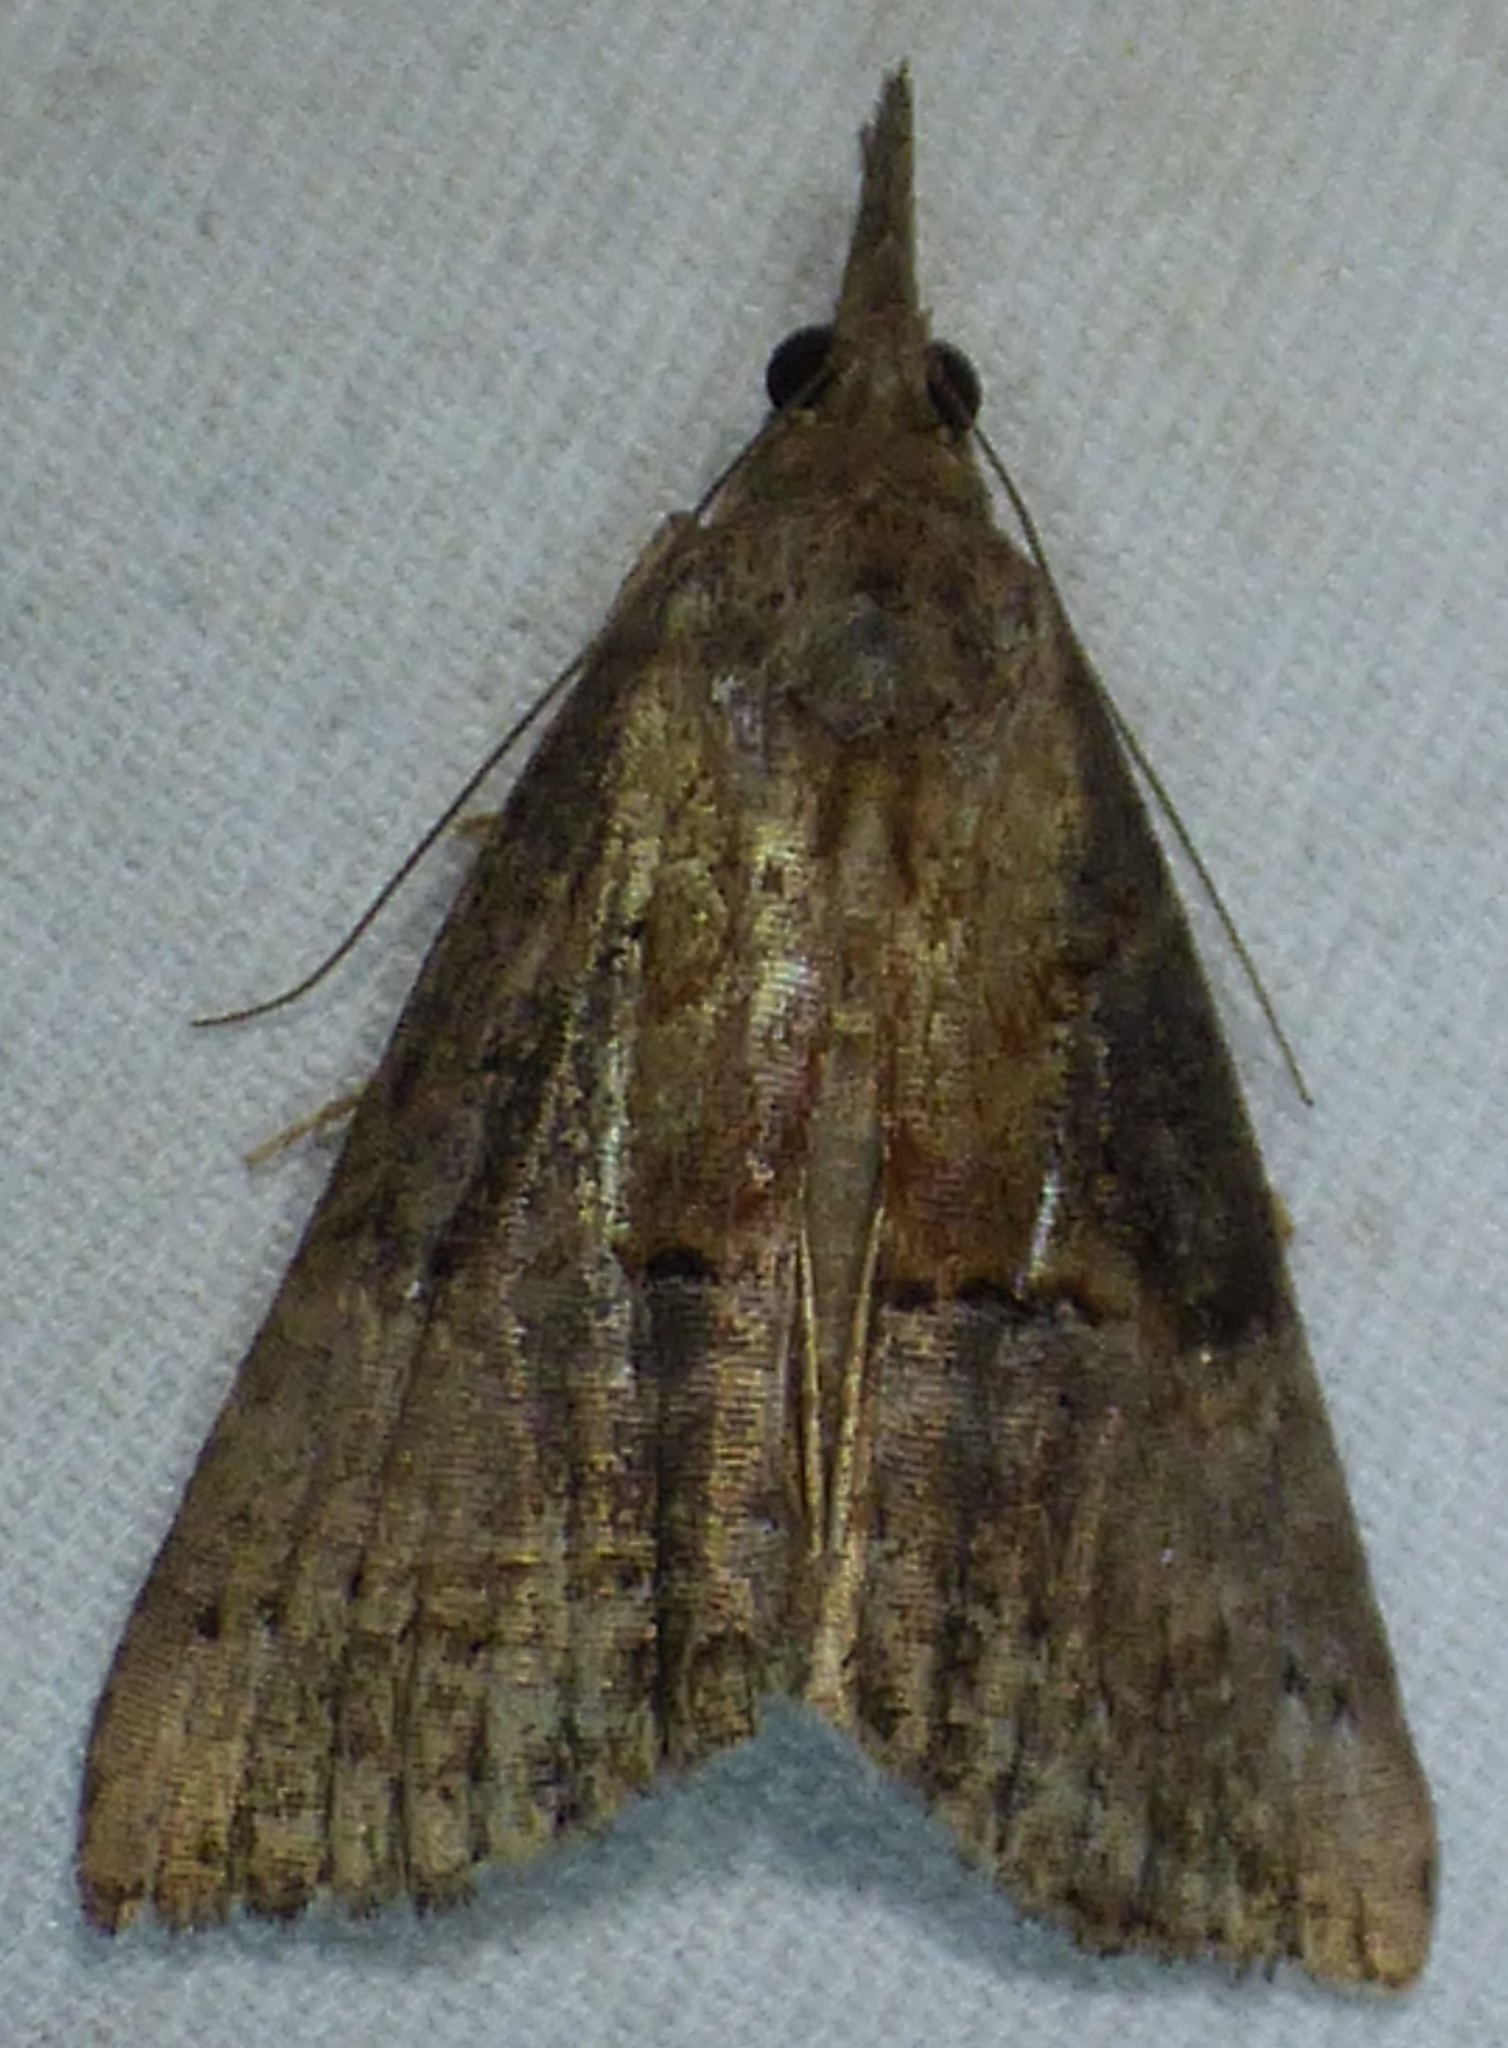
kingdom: Animalia
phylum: Arthropoda
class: Insecta
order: Lepidoptera
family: Erebidae
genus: Hypena
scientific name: Hypena scabra
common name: Green cloverworm
